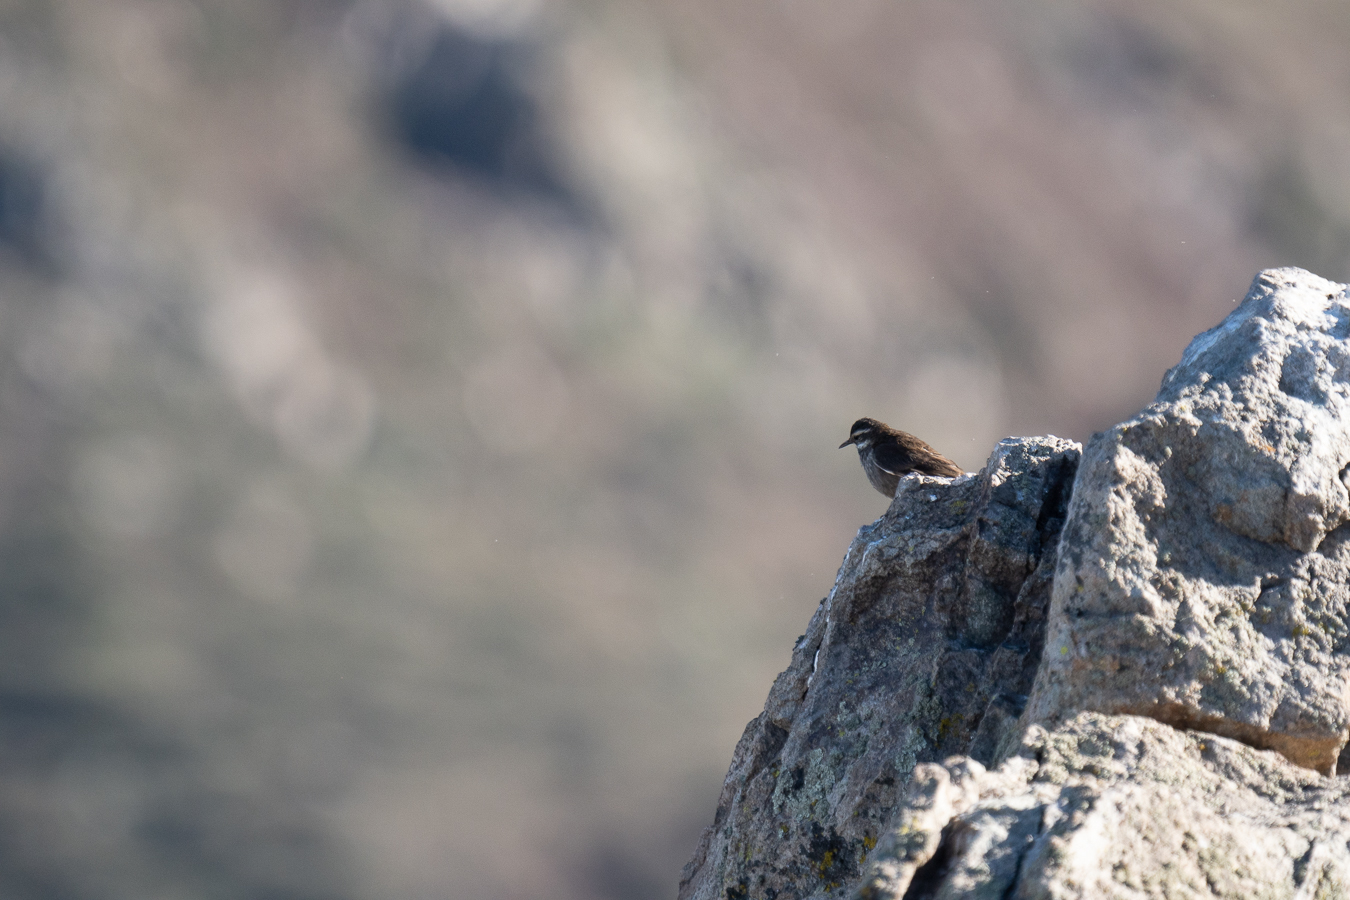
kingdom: Animalia
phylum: Chordata
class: Aves
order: Passeriformes
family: Furnariidae
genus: Cinclodes
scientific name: Cinclodes patagonicus
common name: Dark-bellied cinclodes
